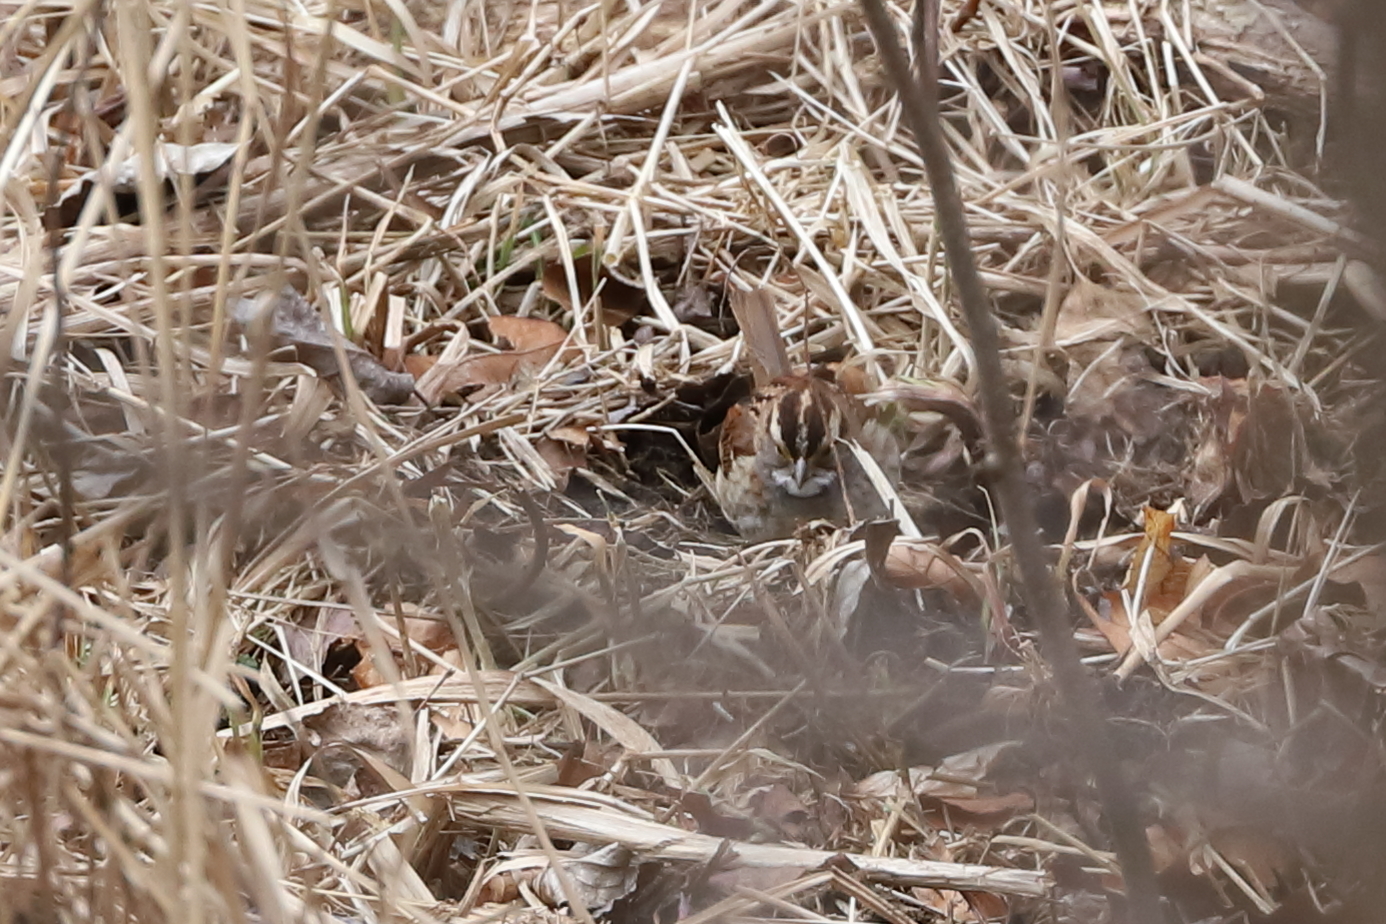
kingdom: Animalia
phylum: Chordata
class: Aves
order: Passeriformes
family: Passerellidae
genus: Zonotrichia
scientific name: Zonotrichia albicollis
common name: White-throated sparrow
